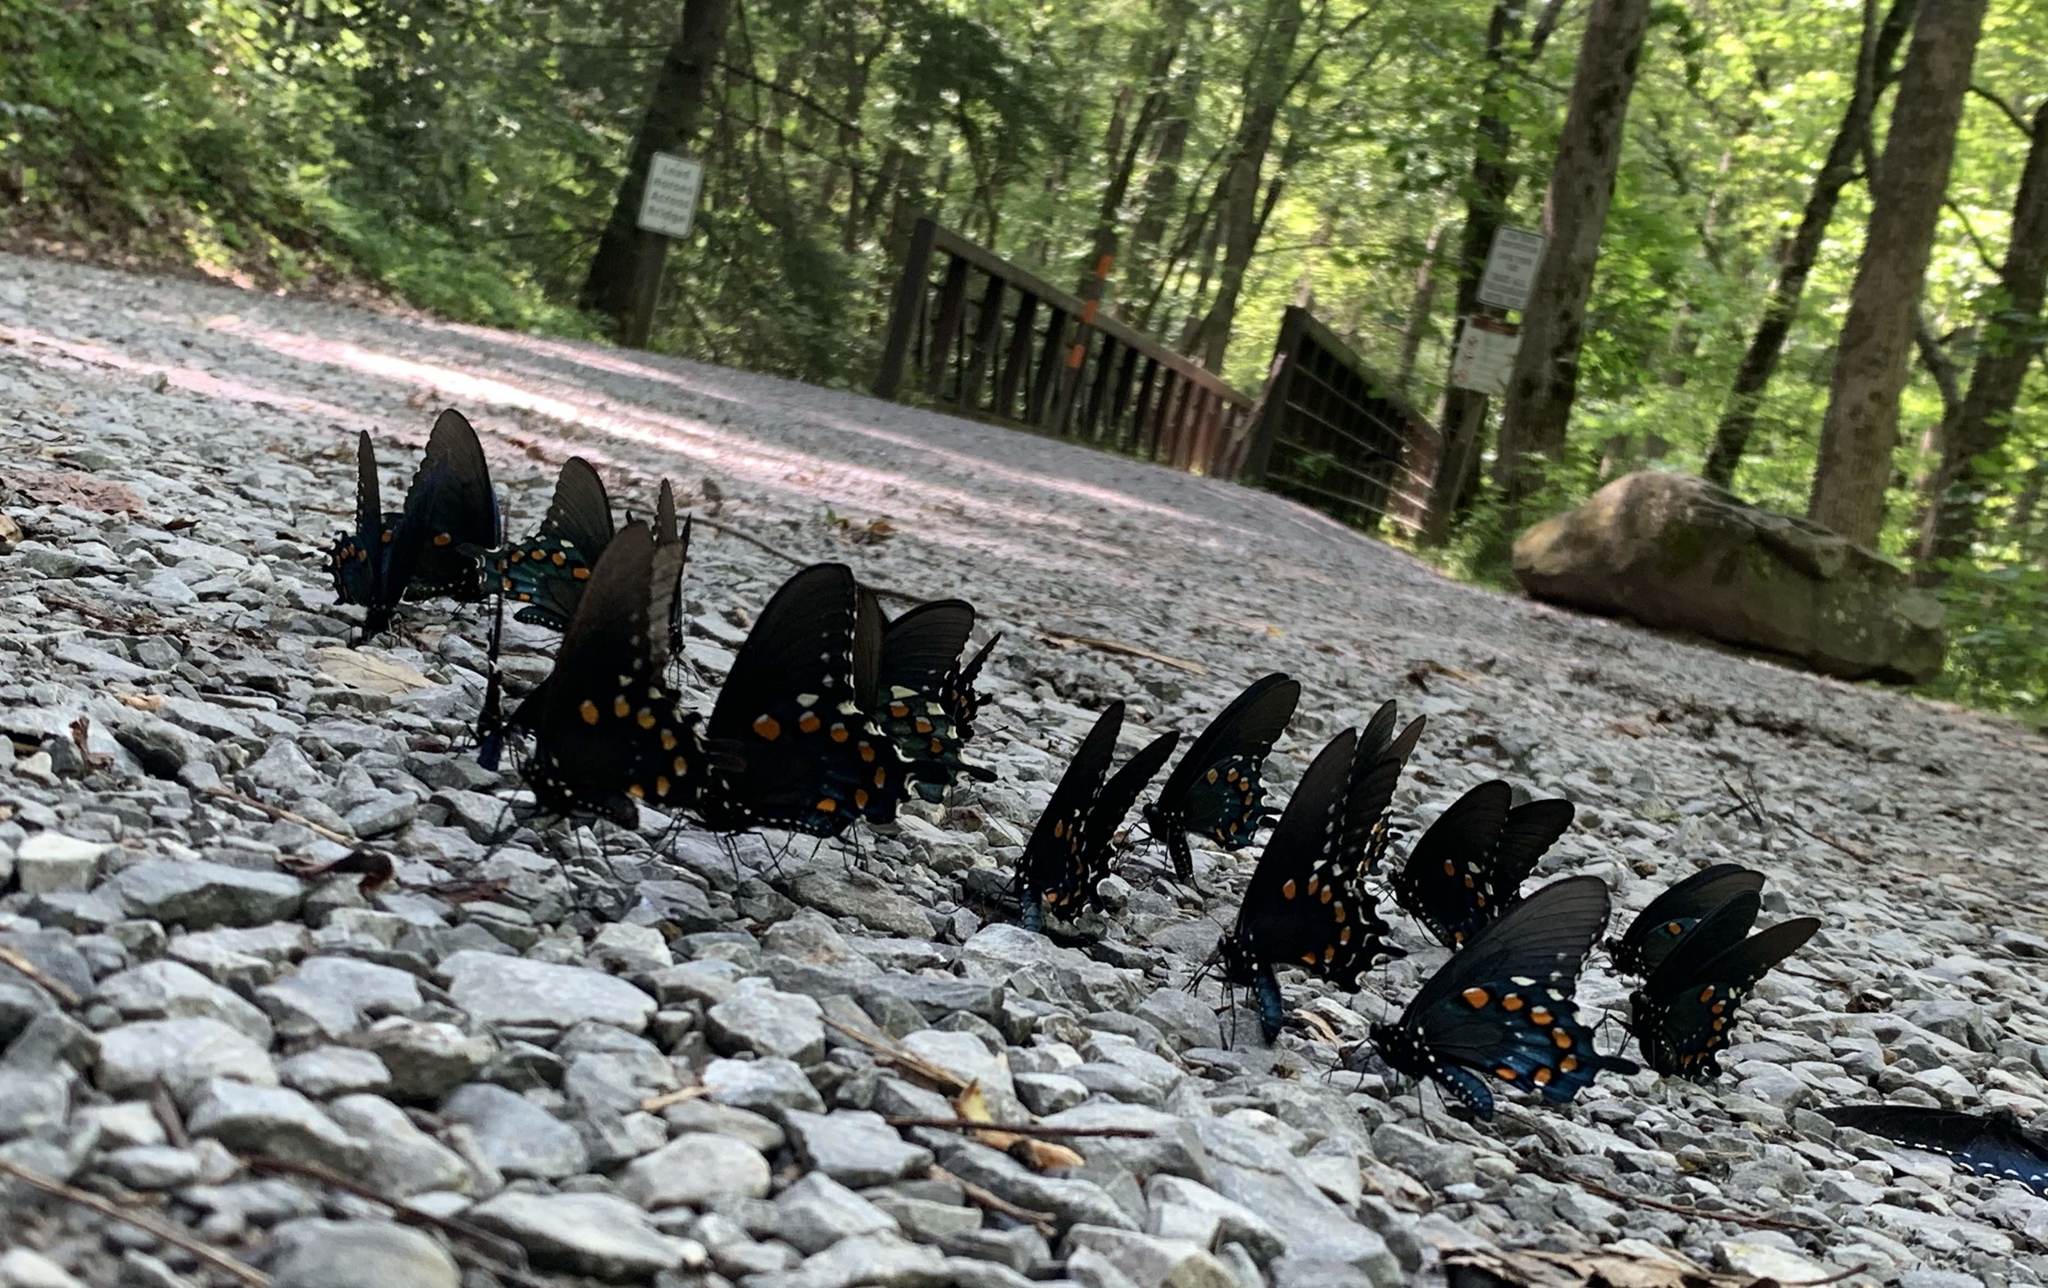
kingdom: Animalia
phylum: Arthropoda
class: Insecta
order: Lepidoptera
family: Papilionidae
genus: Battus
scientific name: Battus philenor
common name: Pipevine swallowtail
